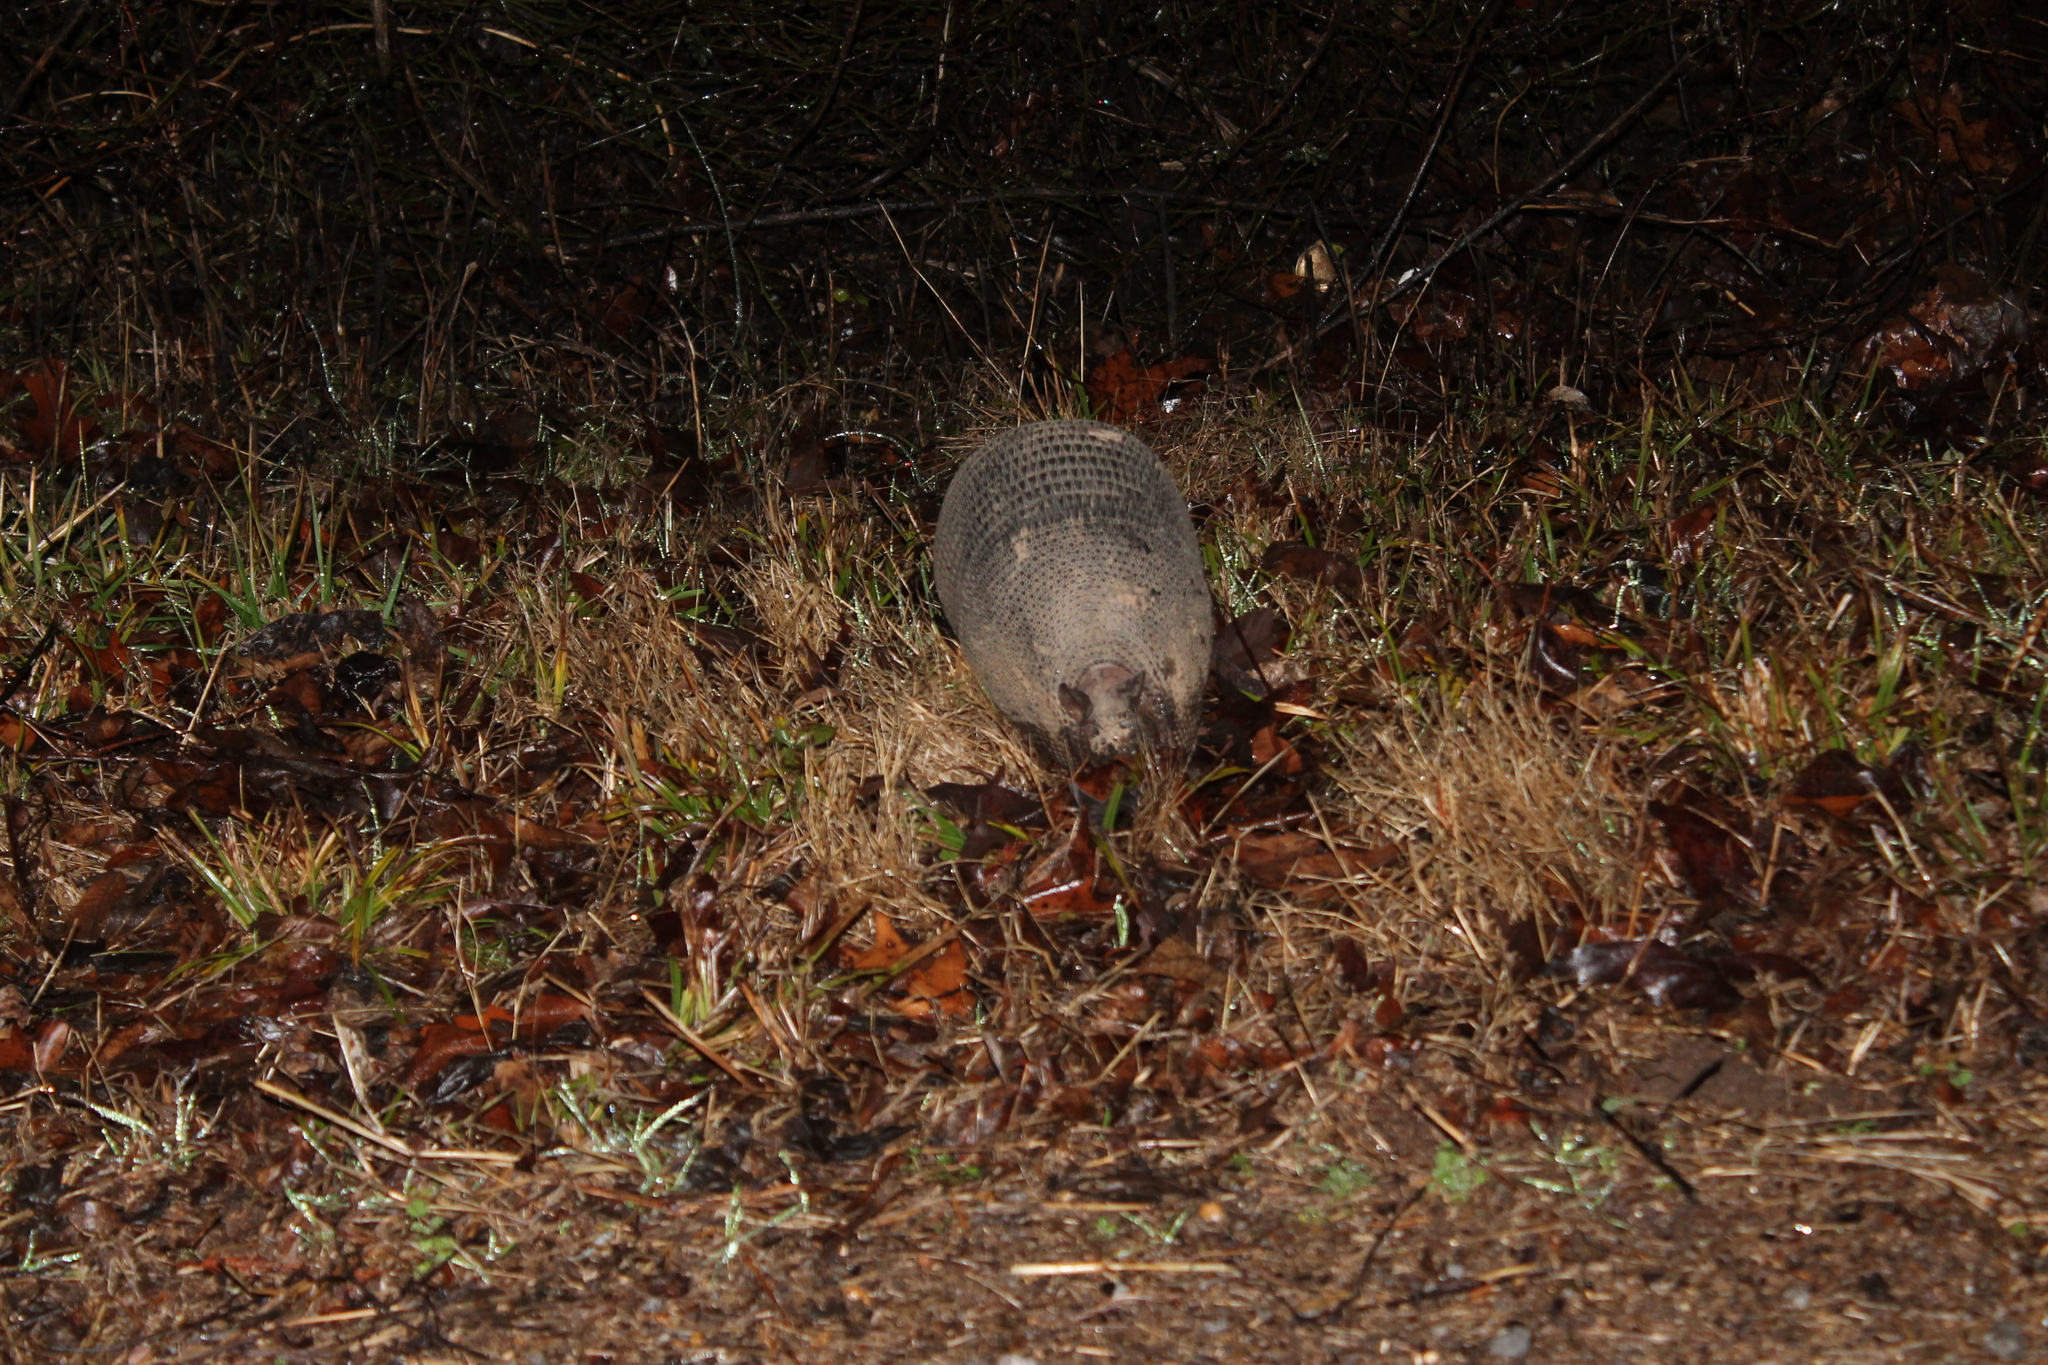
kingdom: Animalia
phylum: Chordata
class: Mammalia
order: Cingulata
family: Dasypodidae
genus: Dasypus
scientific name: Dasypus novemcinctus
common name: Nine-banded armadillo
